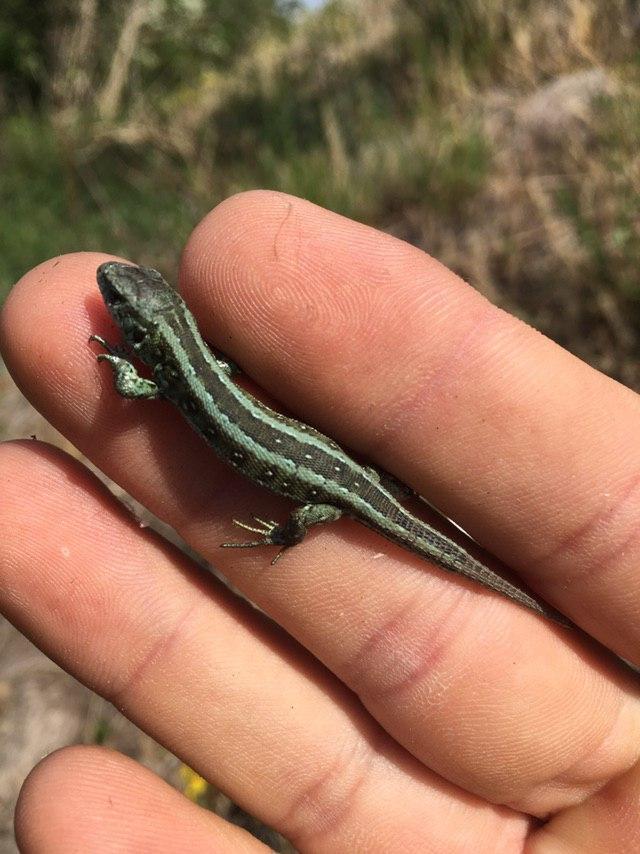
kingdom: Animalia
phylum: Chordata
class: Squamata
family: Lacertidae
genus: Lacerta
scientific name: Lacerta agilis
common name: Sand lizard
